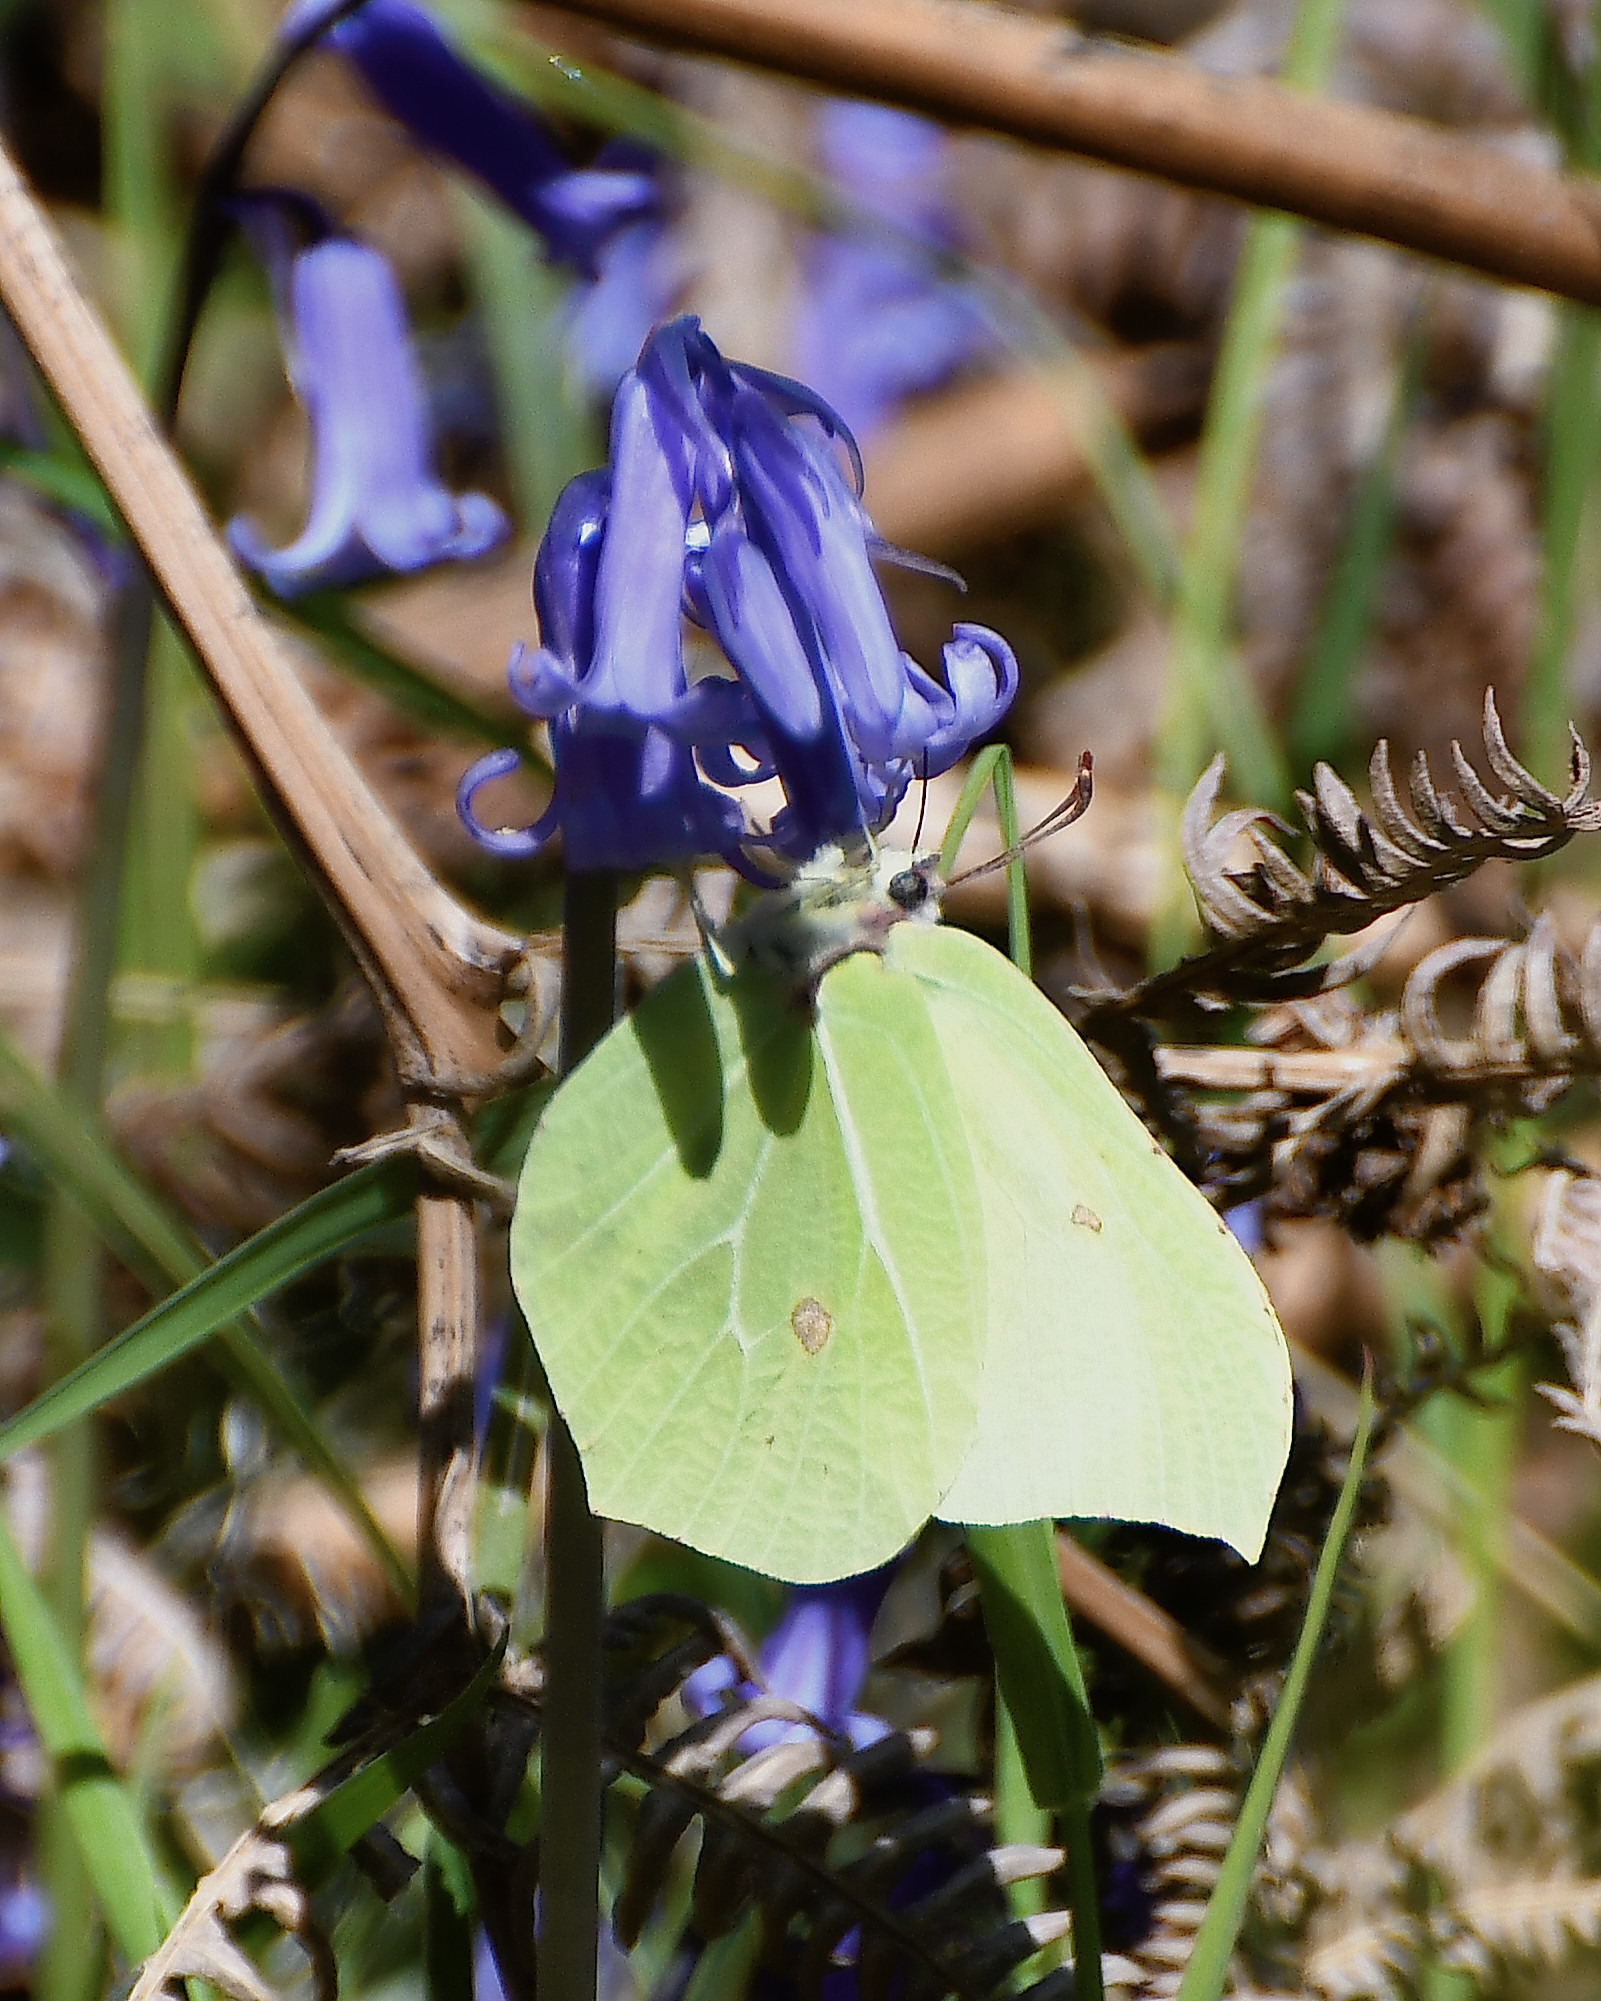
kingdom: Animalia
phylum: Arthropoda
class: Insecta
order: Lepidoptera
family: Pieridae
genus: Gonepteryx
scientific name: Gonepteryx rhamni
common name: Brimstone
